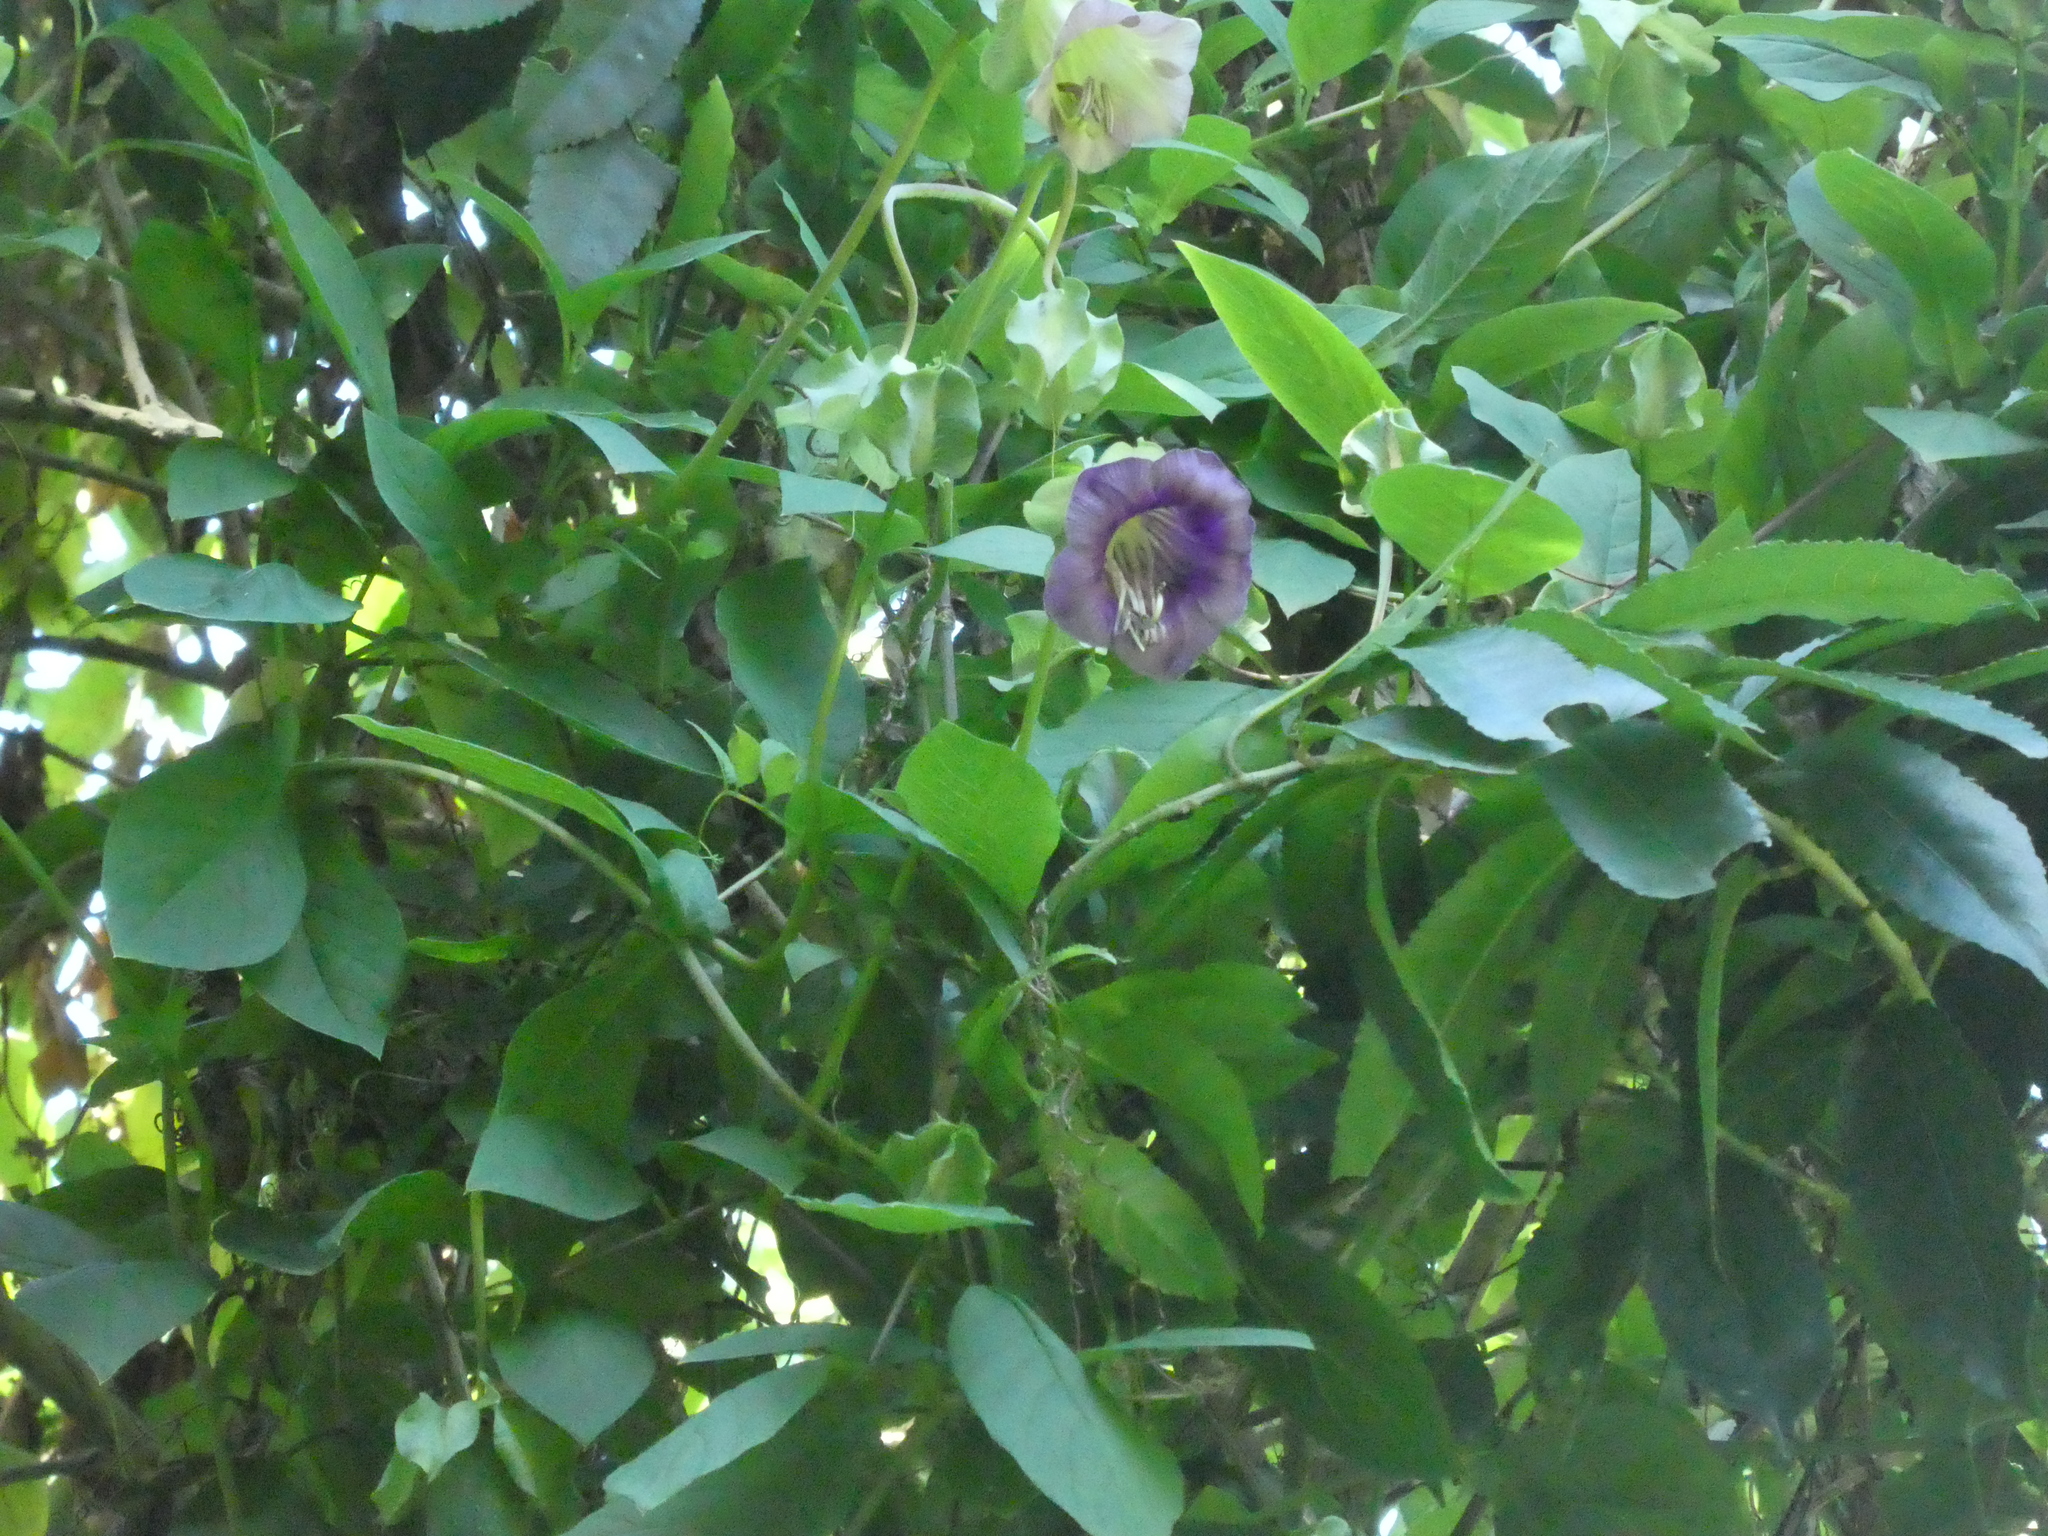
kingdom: Plantae
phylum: Tracheophyta
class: Magnoliopsida
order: Ericales
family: Polemoniaceae
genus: Cobaea
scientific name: Cobaea scandens
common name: Cup-and-saucer-vine
